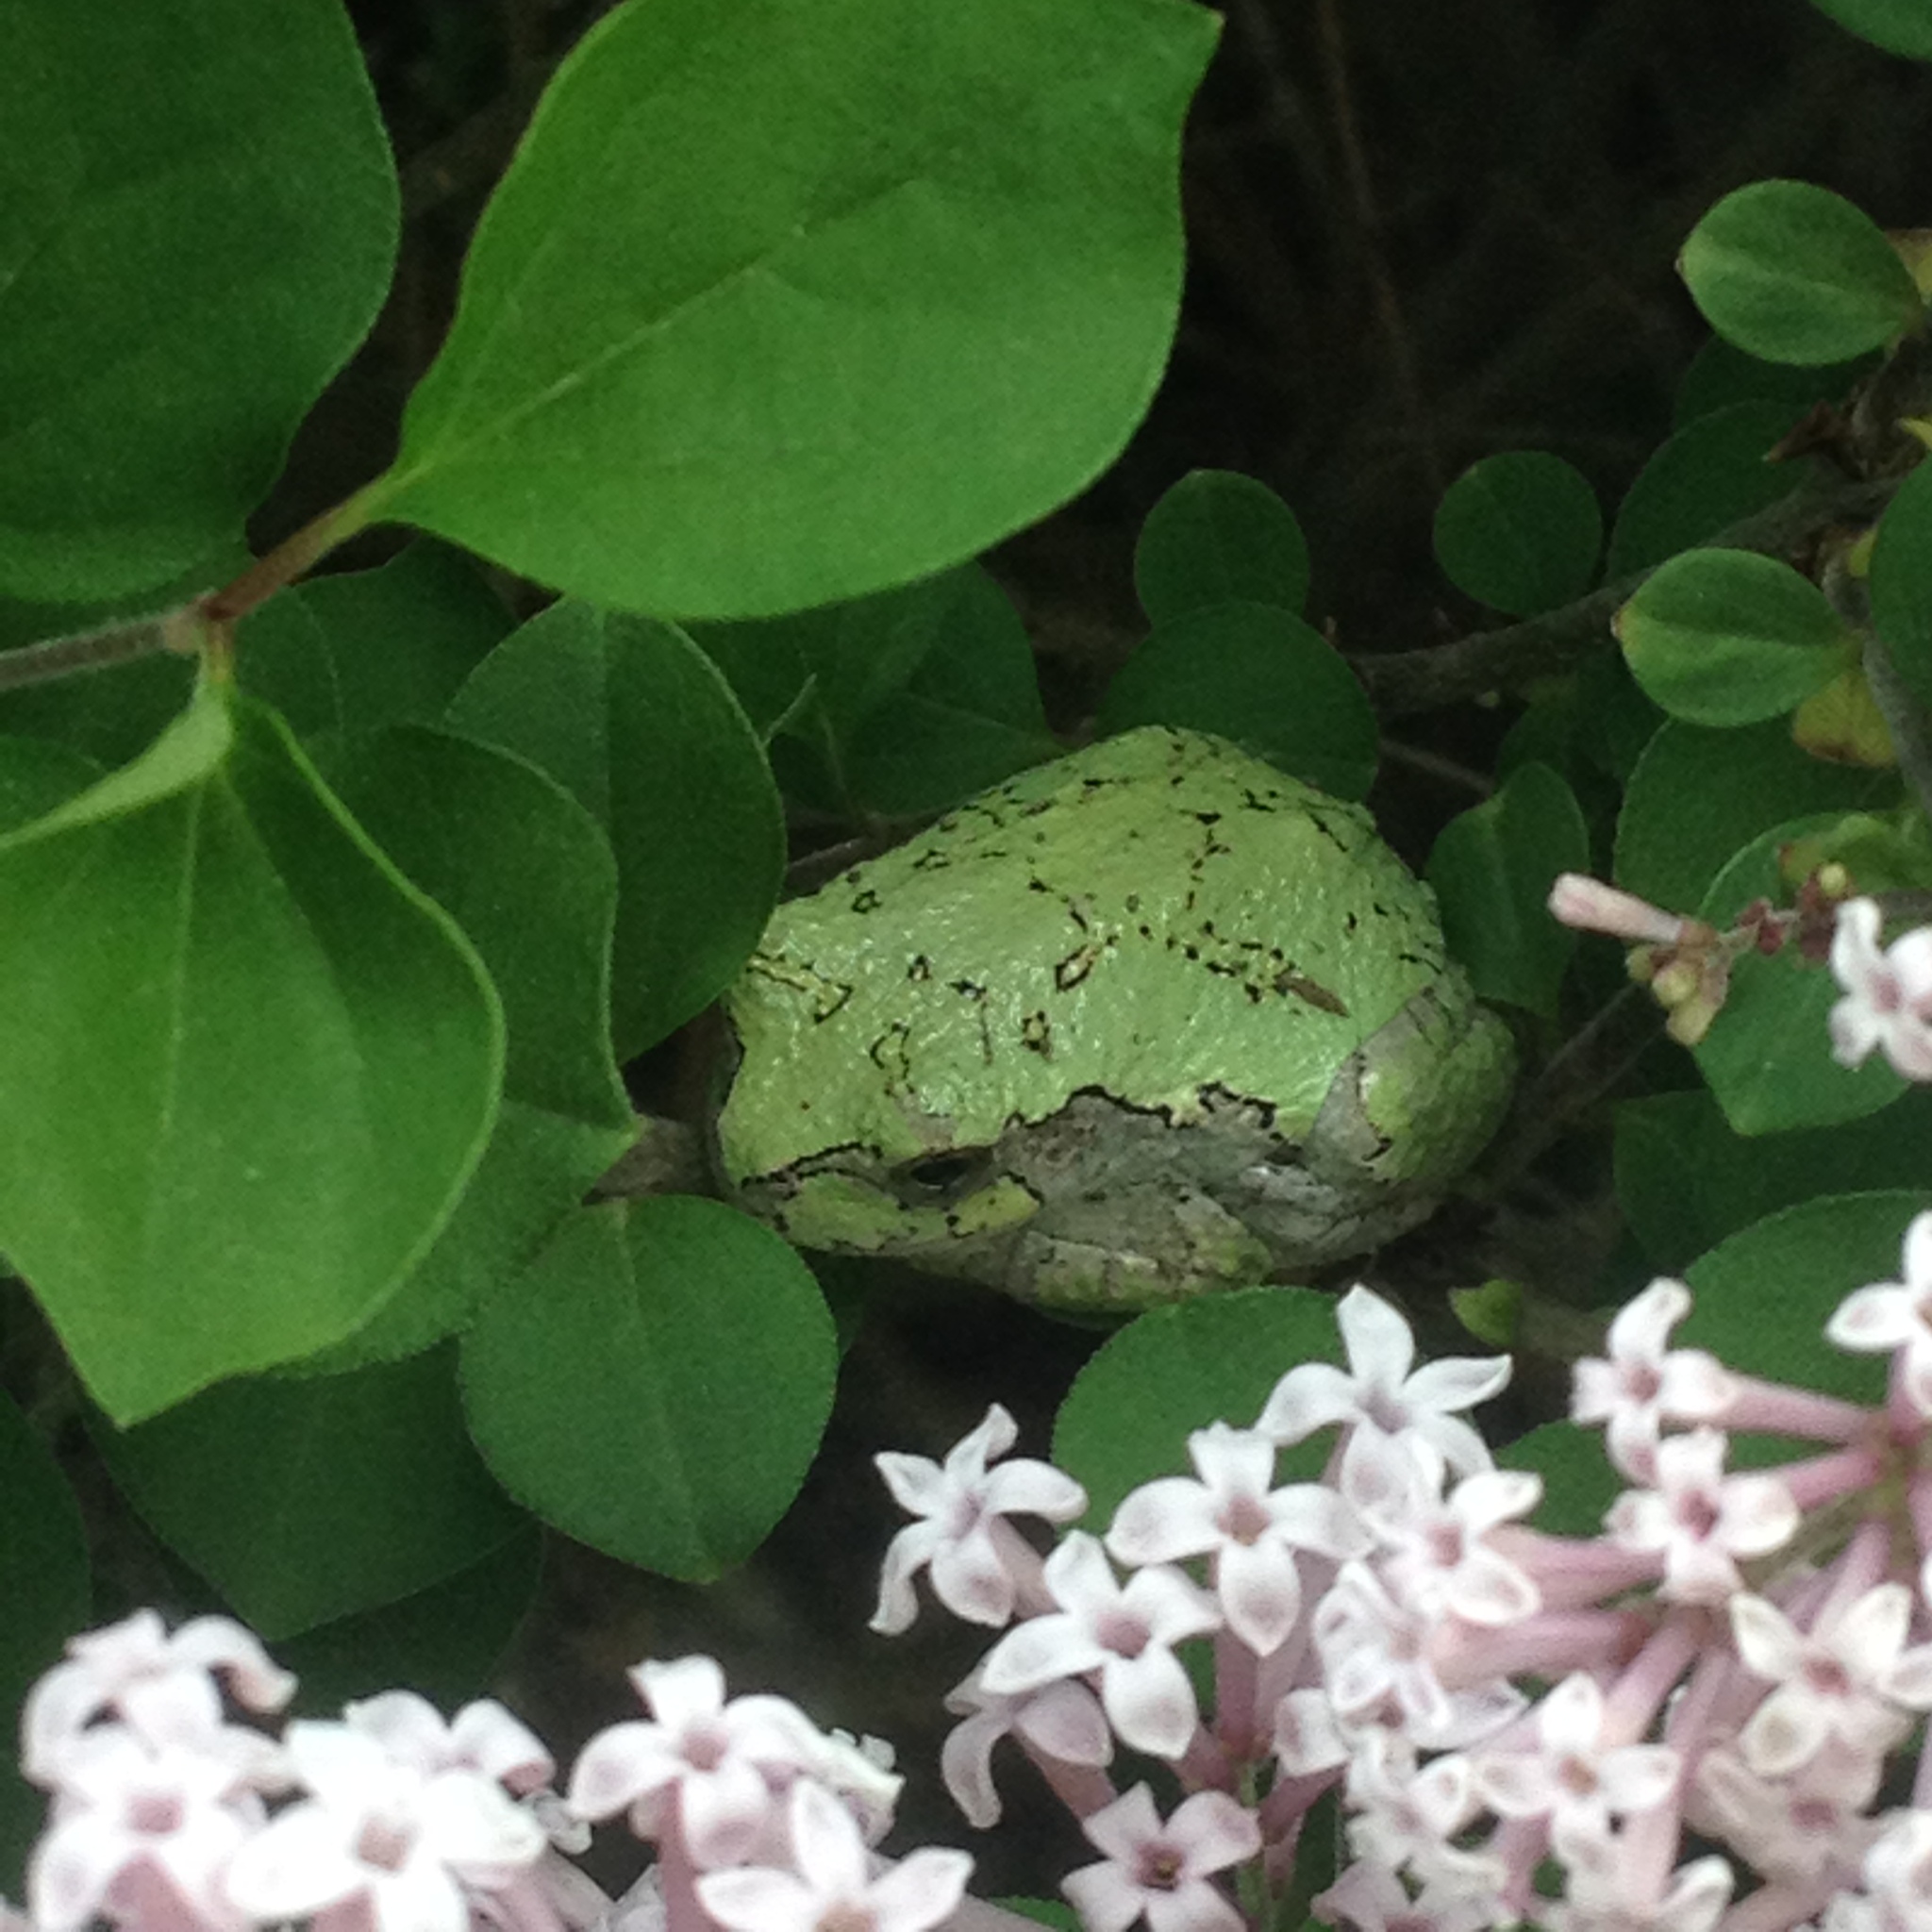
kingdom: Animalia
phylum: Chordata
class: Amphibia
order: Anura
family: Hylidae
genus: Dryophytes
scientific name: Dryophytes versicolor
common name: Gray treefrog
